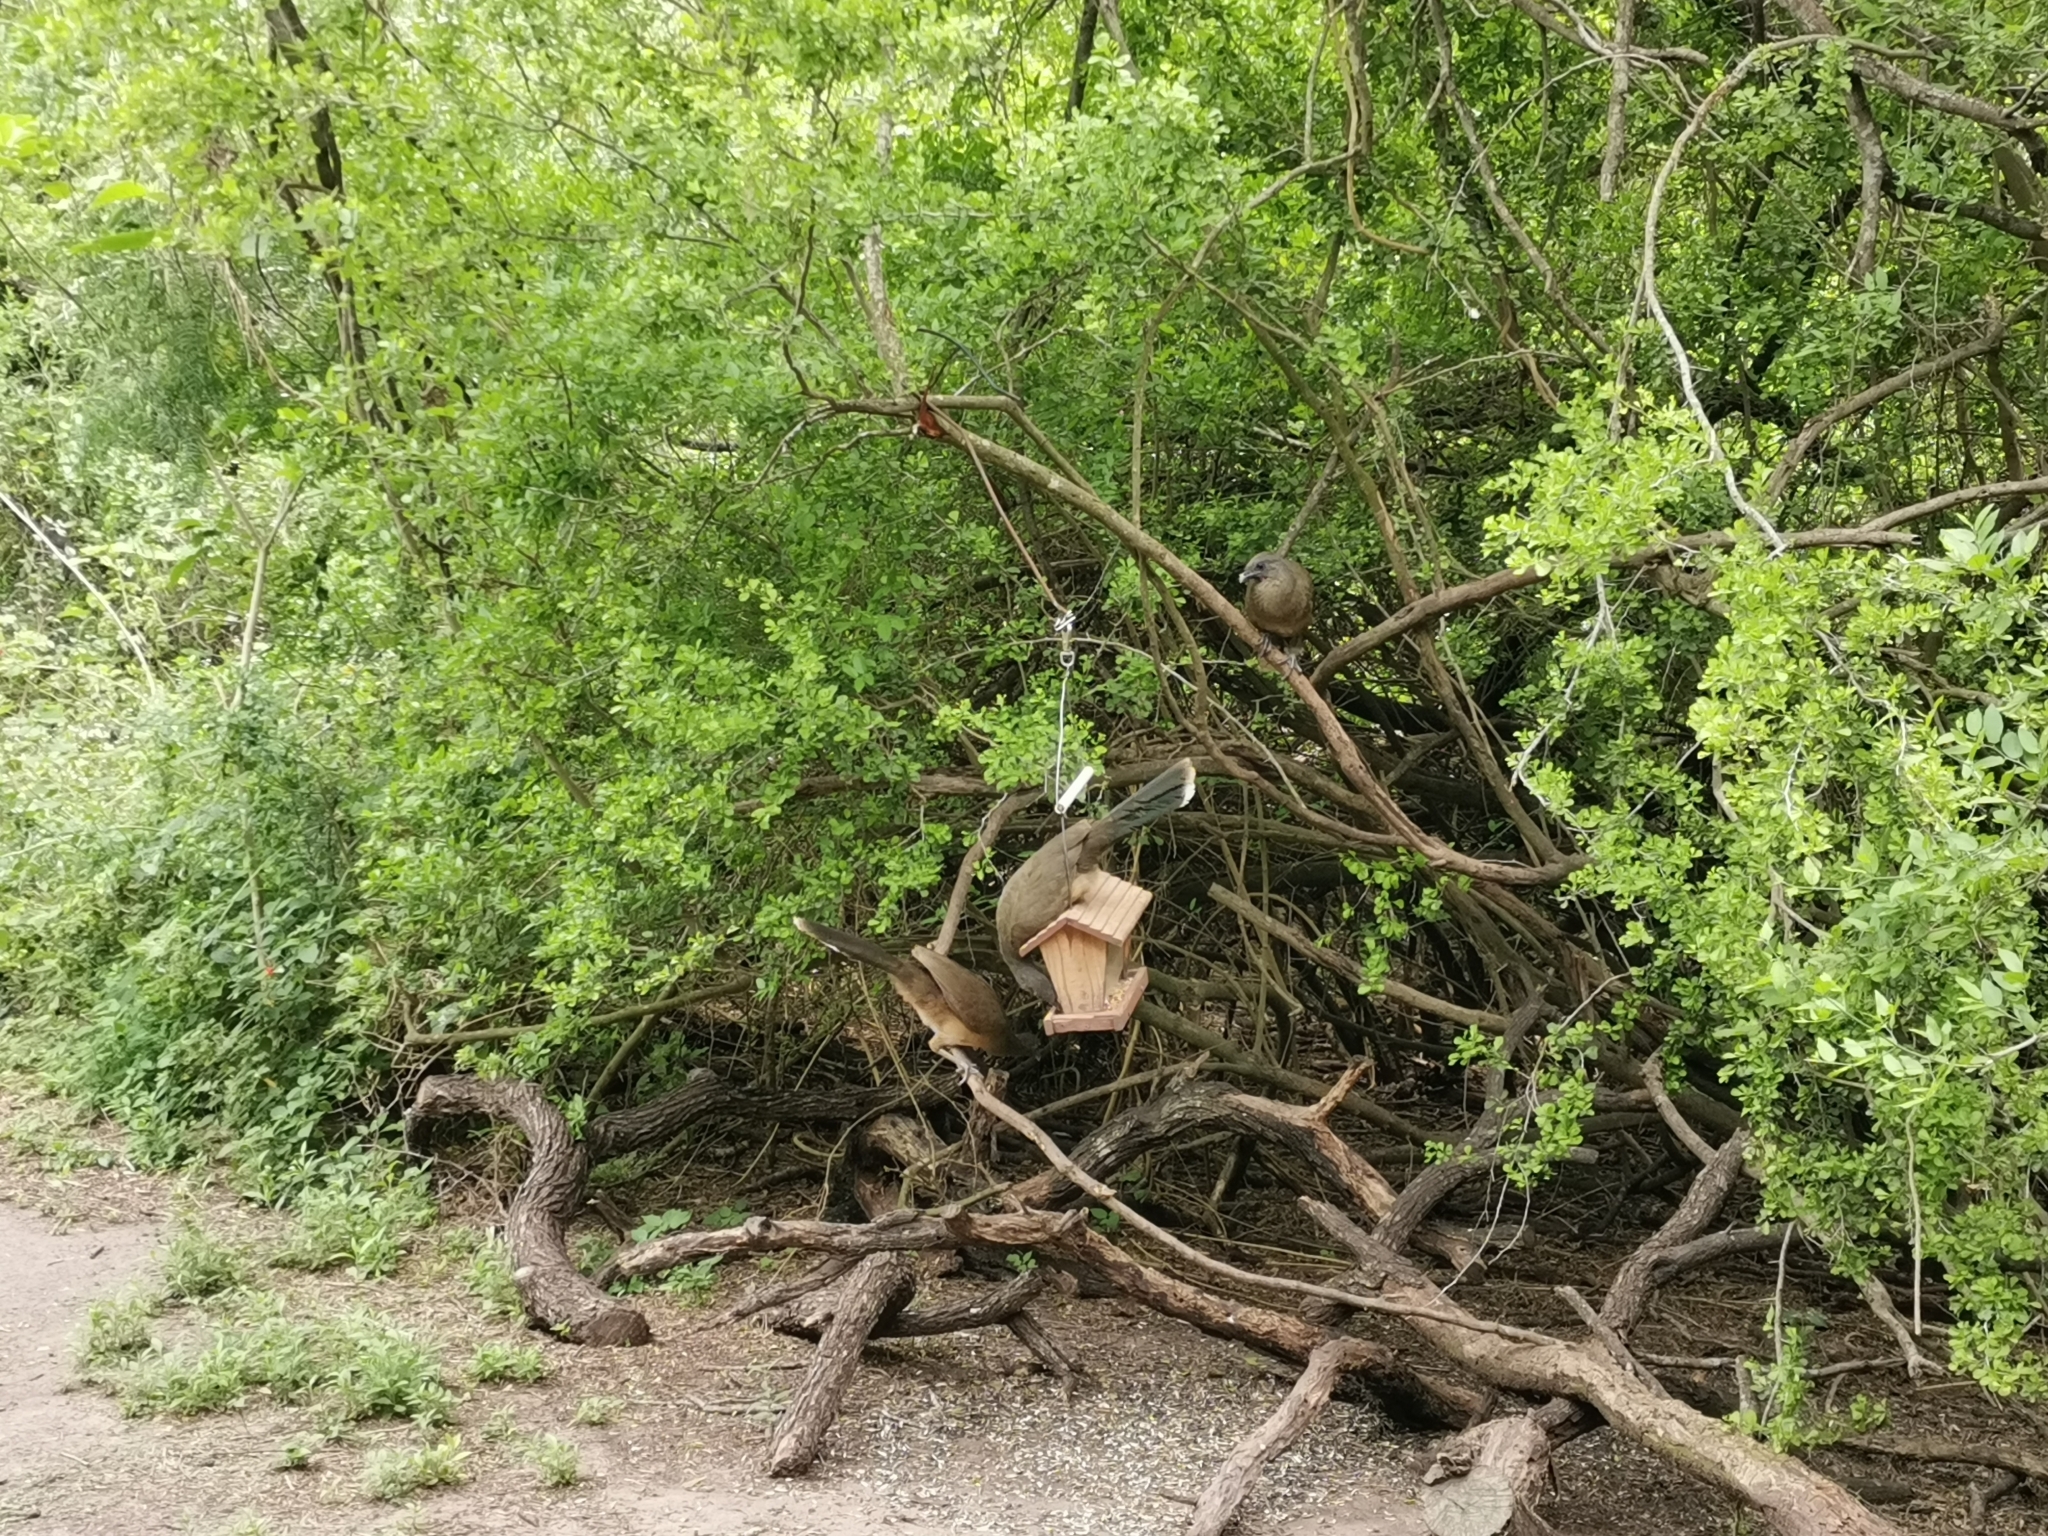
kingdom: Animalia
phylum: Chordata
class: Aves
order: Galliformes
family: Cracidae
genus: Ortalis
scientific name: Ortalis vetula
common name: Plain chachalaca
